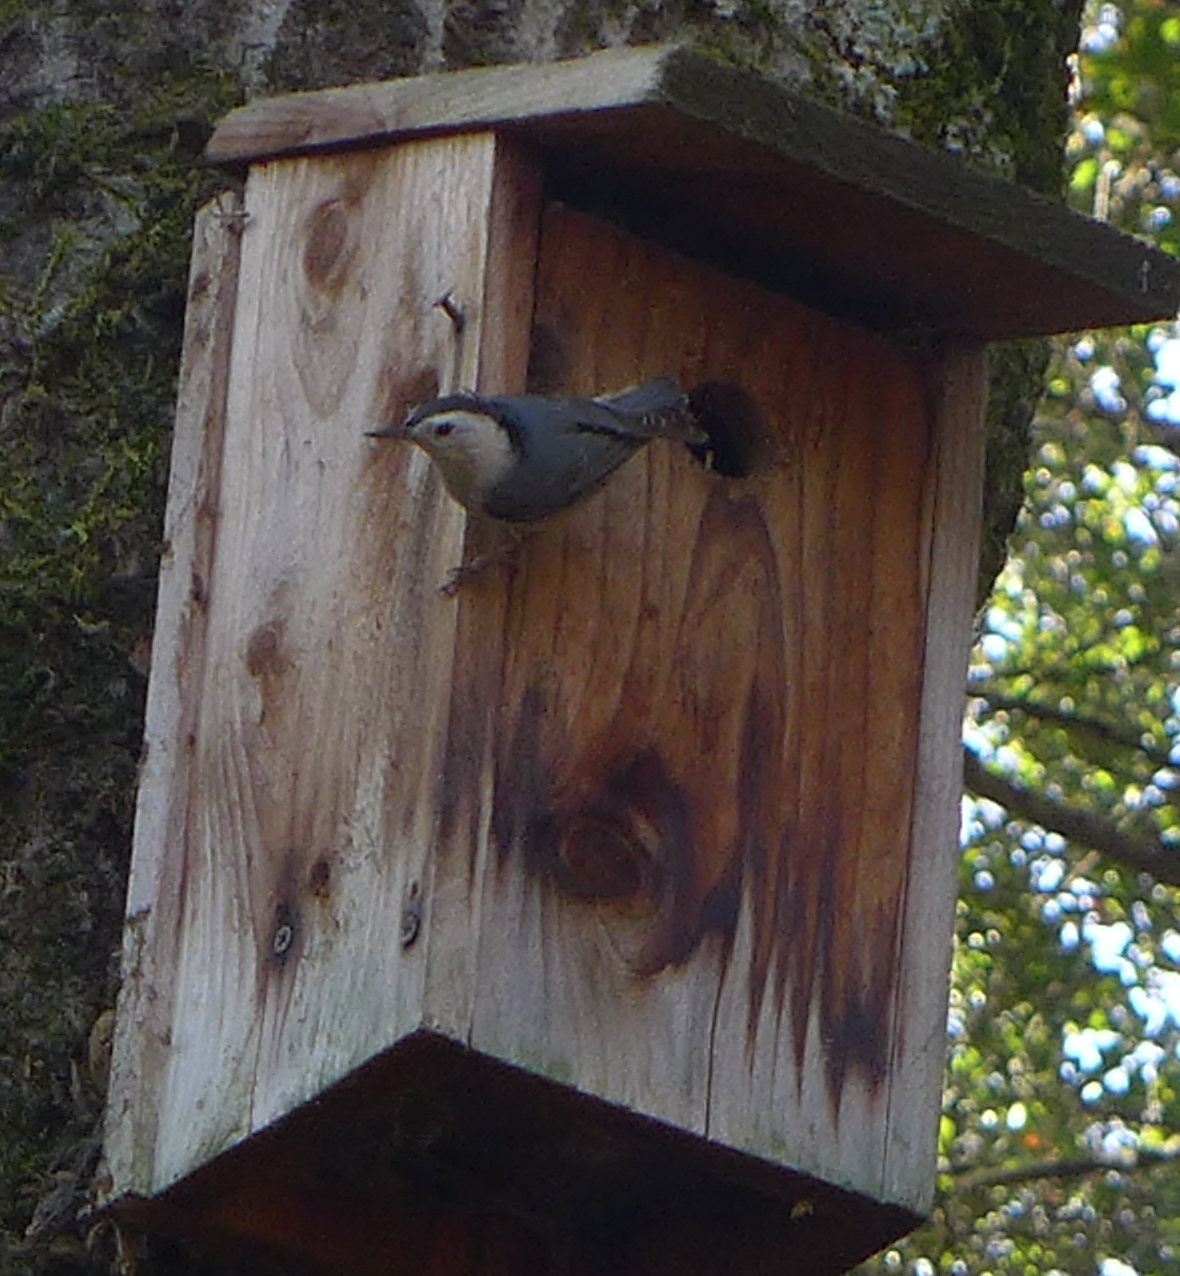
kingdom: Animalia
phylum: Chordata
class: Aves
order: Passeriformes
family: Sittidae
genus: Sitta
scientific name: Sitta carolinensis
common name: White-breasted nuthatch
